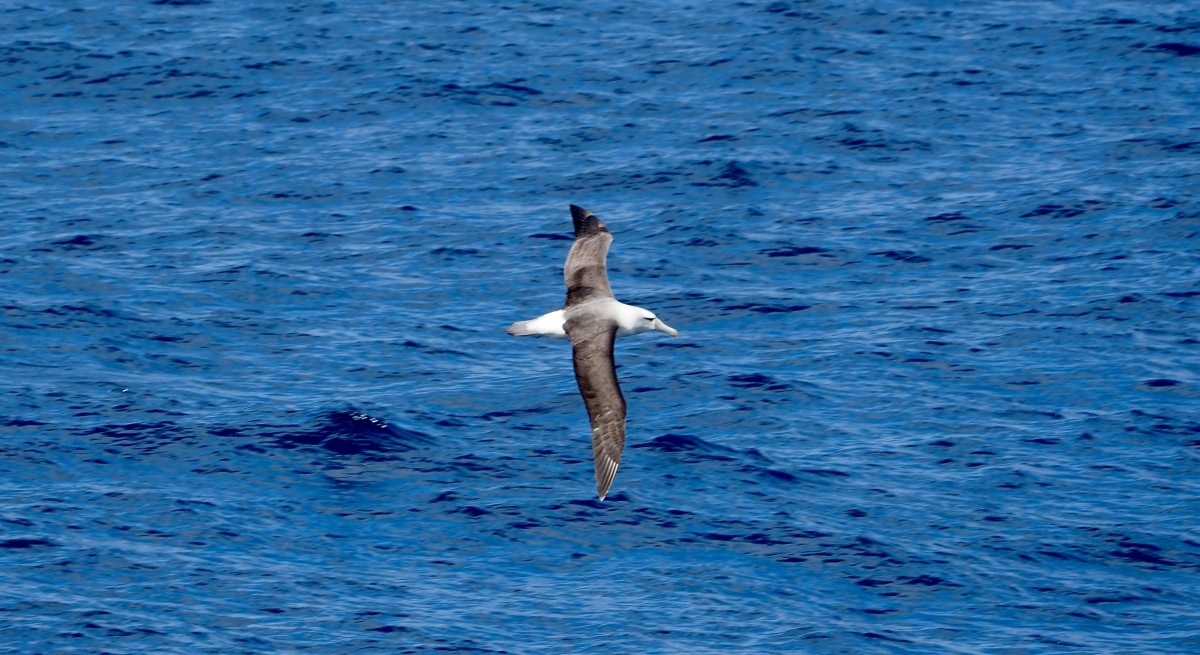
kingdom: Animalia
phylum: Chordata
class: Aves
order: Procellariiformes
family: Diomedeidae
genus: Thalassarche
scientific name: Thalassarche cauta
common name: Shy albatross
